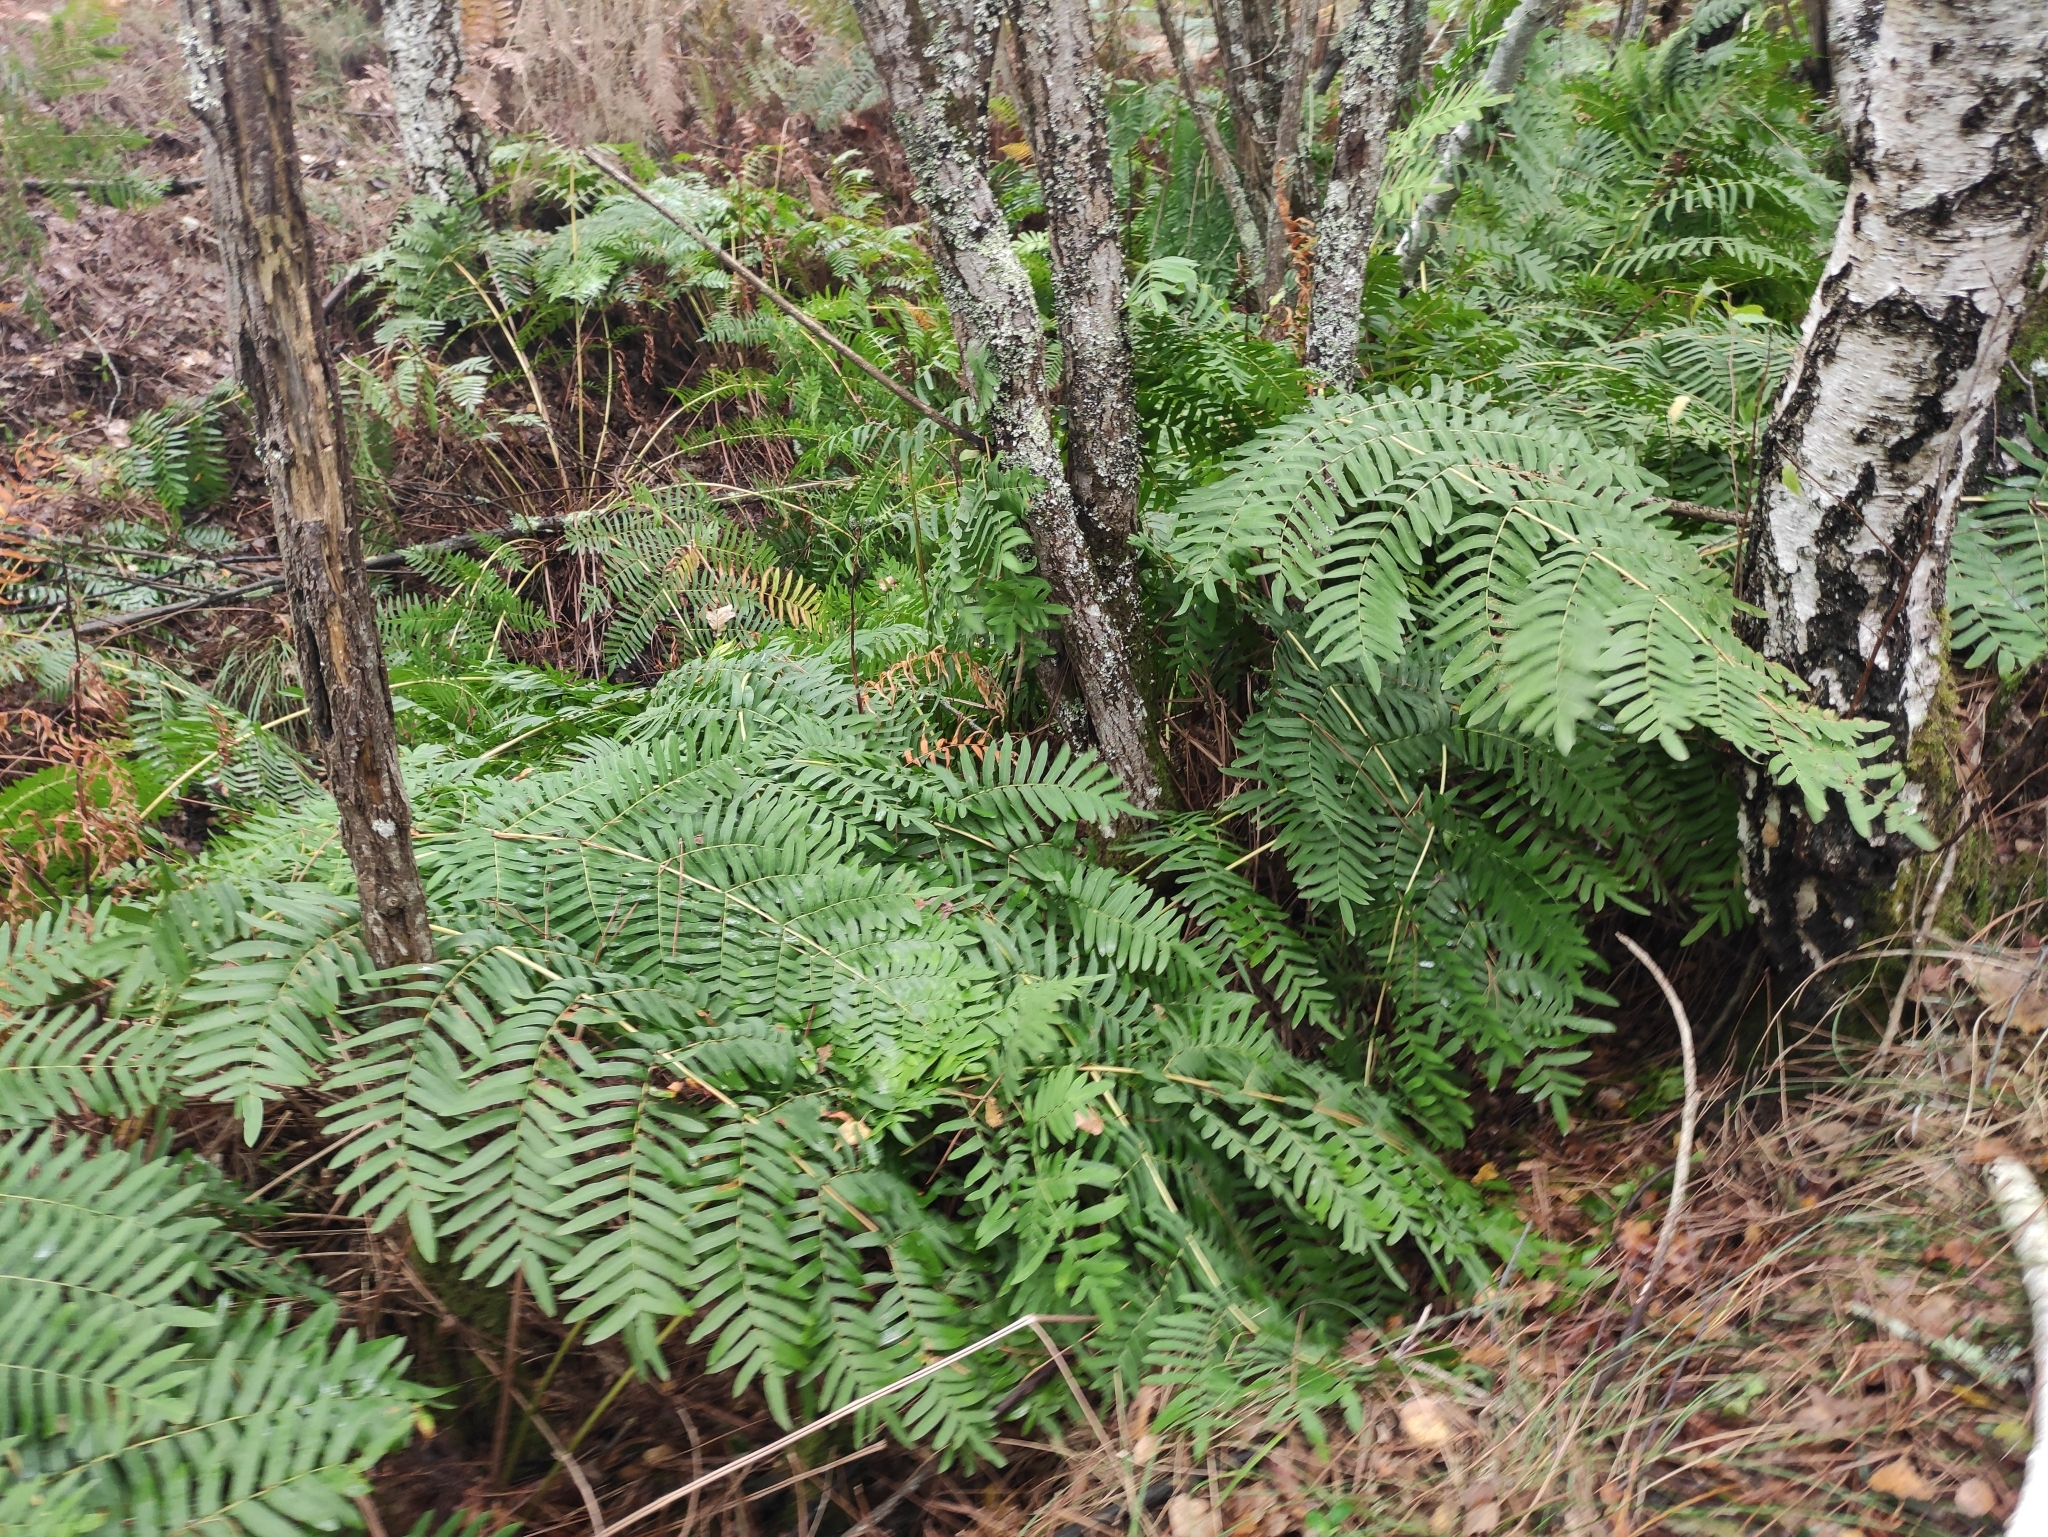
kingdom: Plantae
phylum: Tracheophyta
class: Polypodiopsida
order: Osmundales
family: Osmundaceae
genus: Osmunda
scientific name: Osmunda regalis
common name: Royal fern
